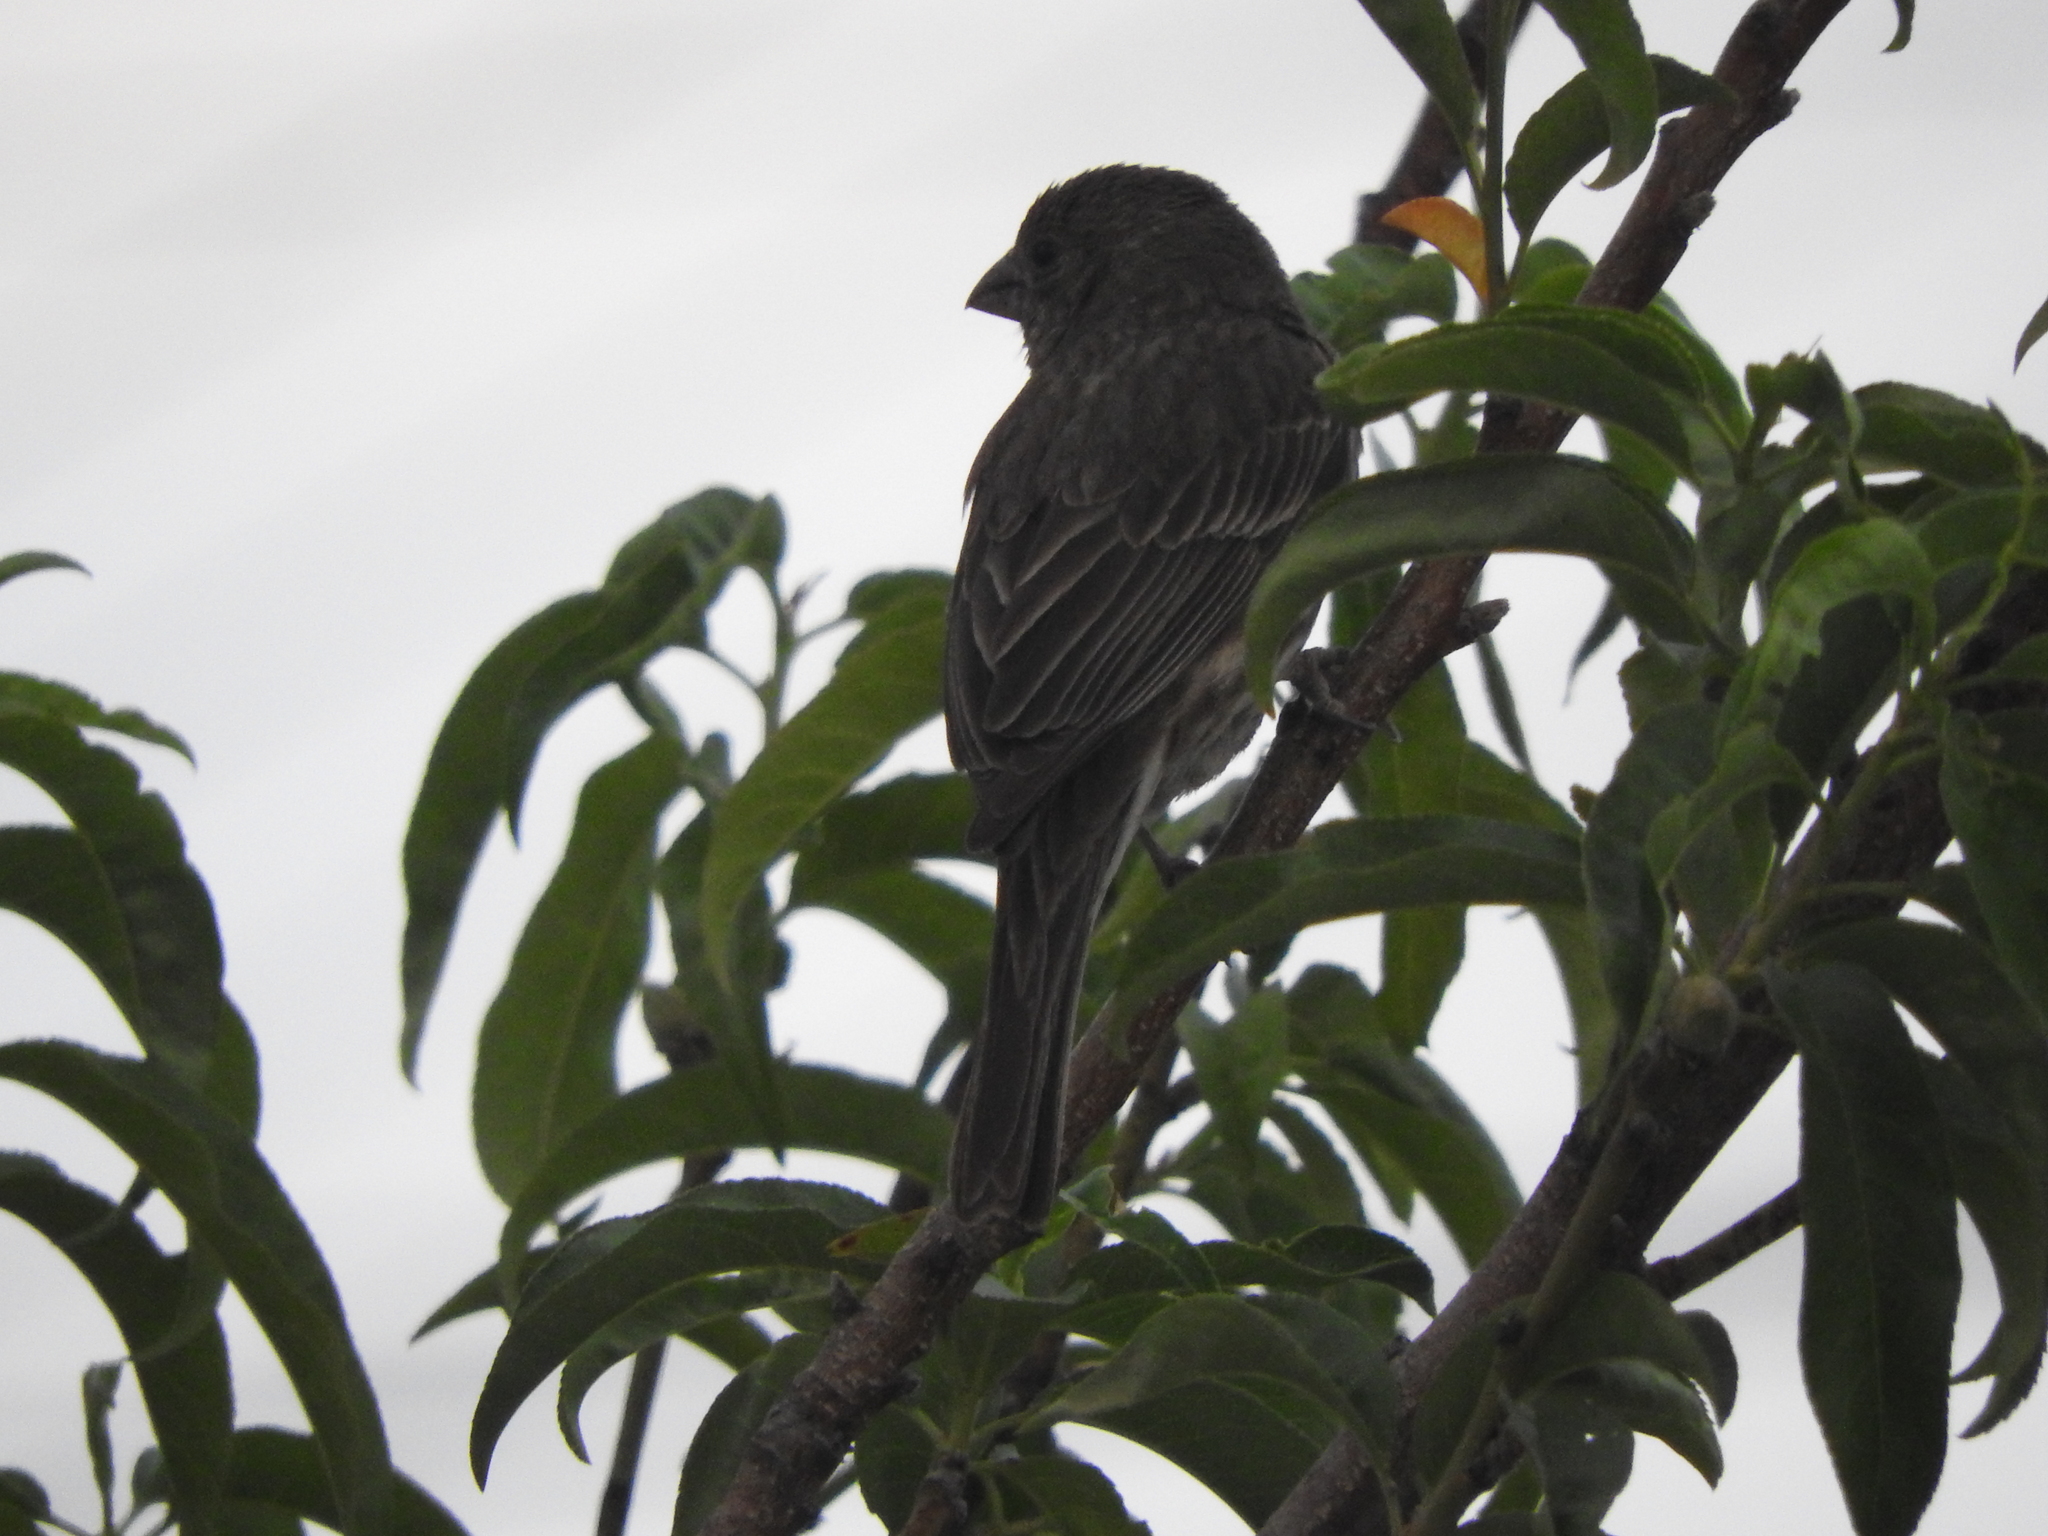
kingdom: Animalia
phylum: Chordata
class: Aves
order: Passeriformes
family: Fringillidae
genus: Haemorhous
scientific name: Haemorhous mexicanus
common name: House finch
